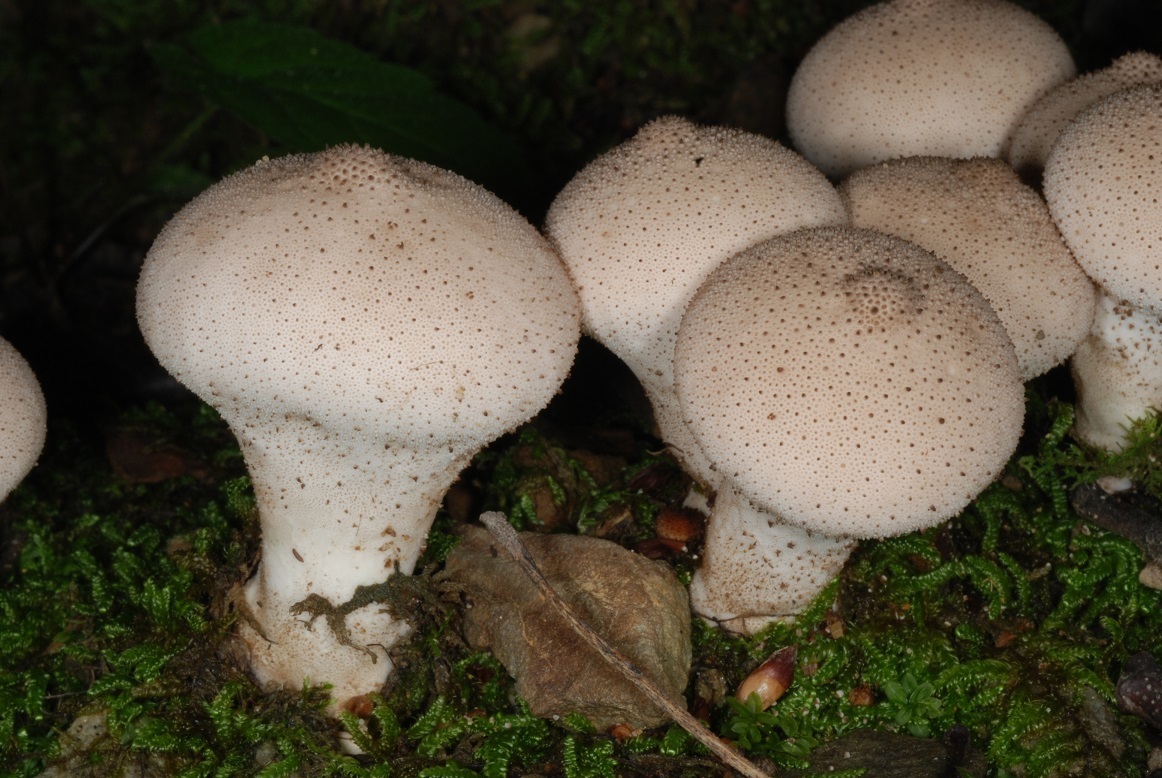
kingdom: Fungi
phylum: Basidiomycota
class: Agaricomycetes
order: Agaricales
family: Lycoperdaceae
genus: Lycoperdon
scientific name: Lycoperdon perlatum
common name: Common puffball
